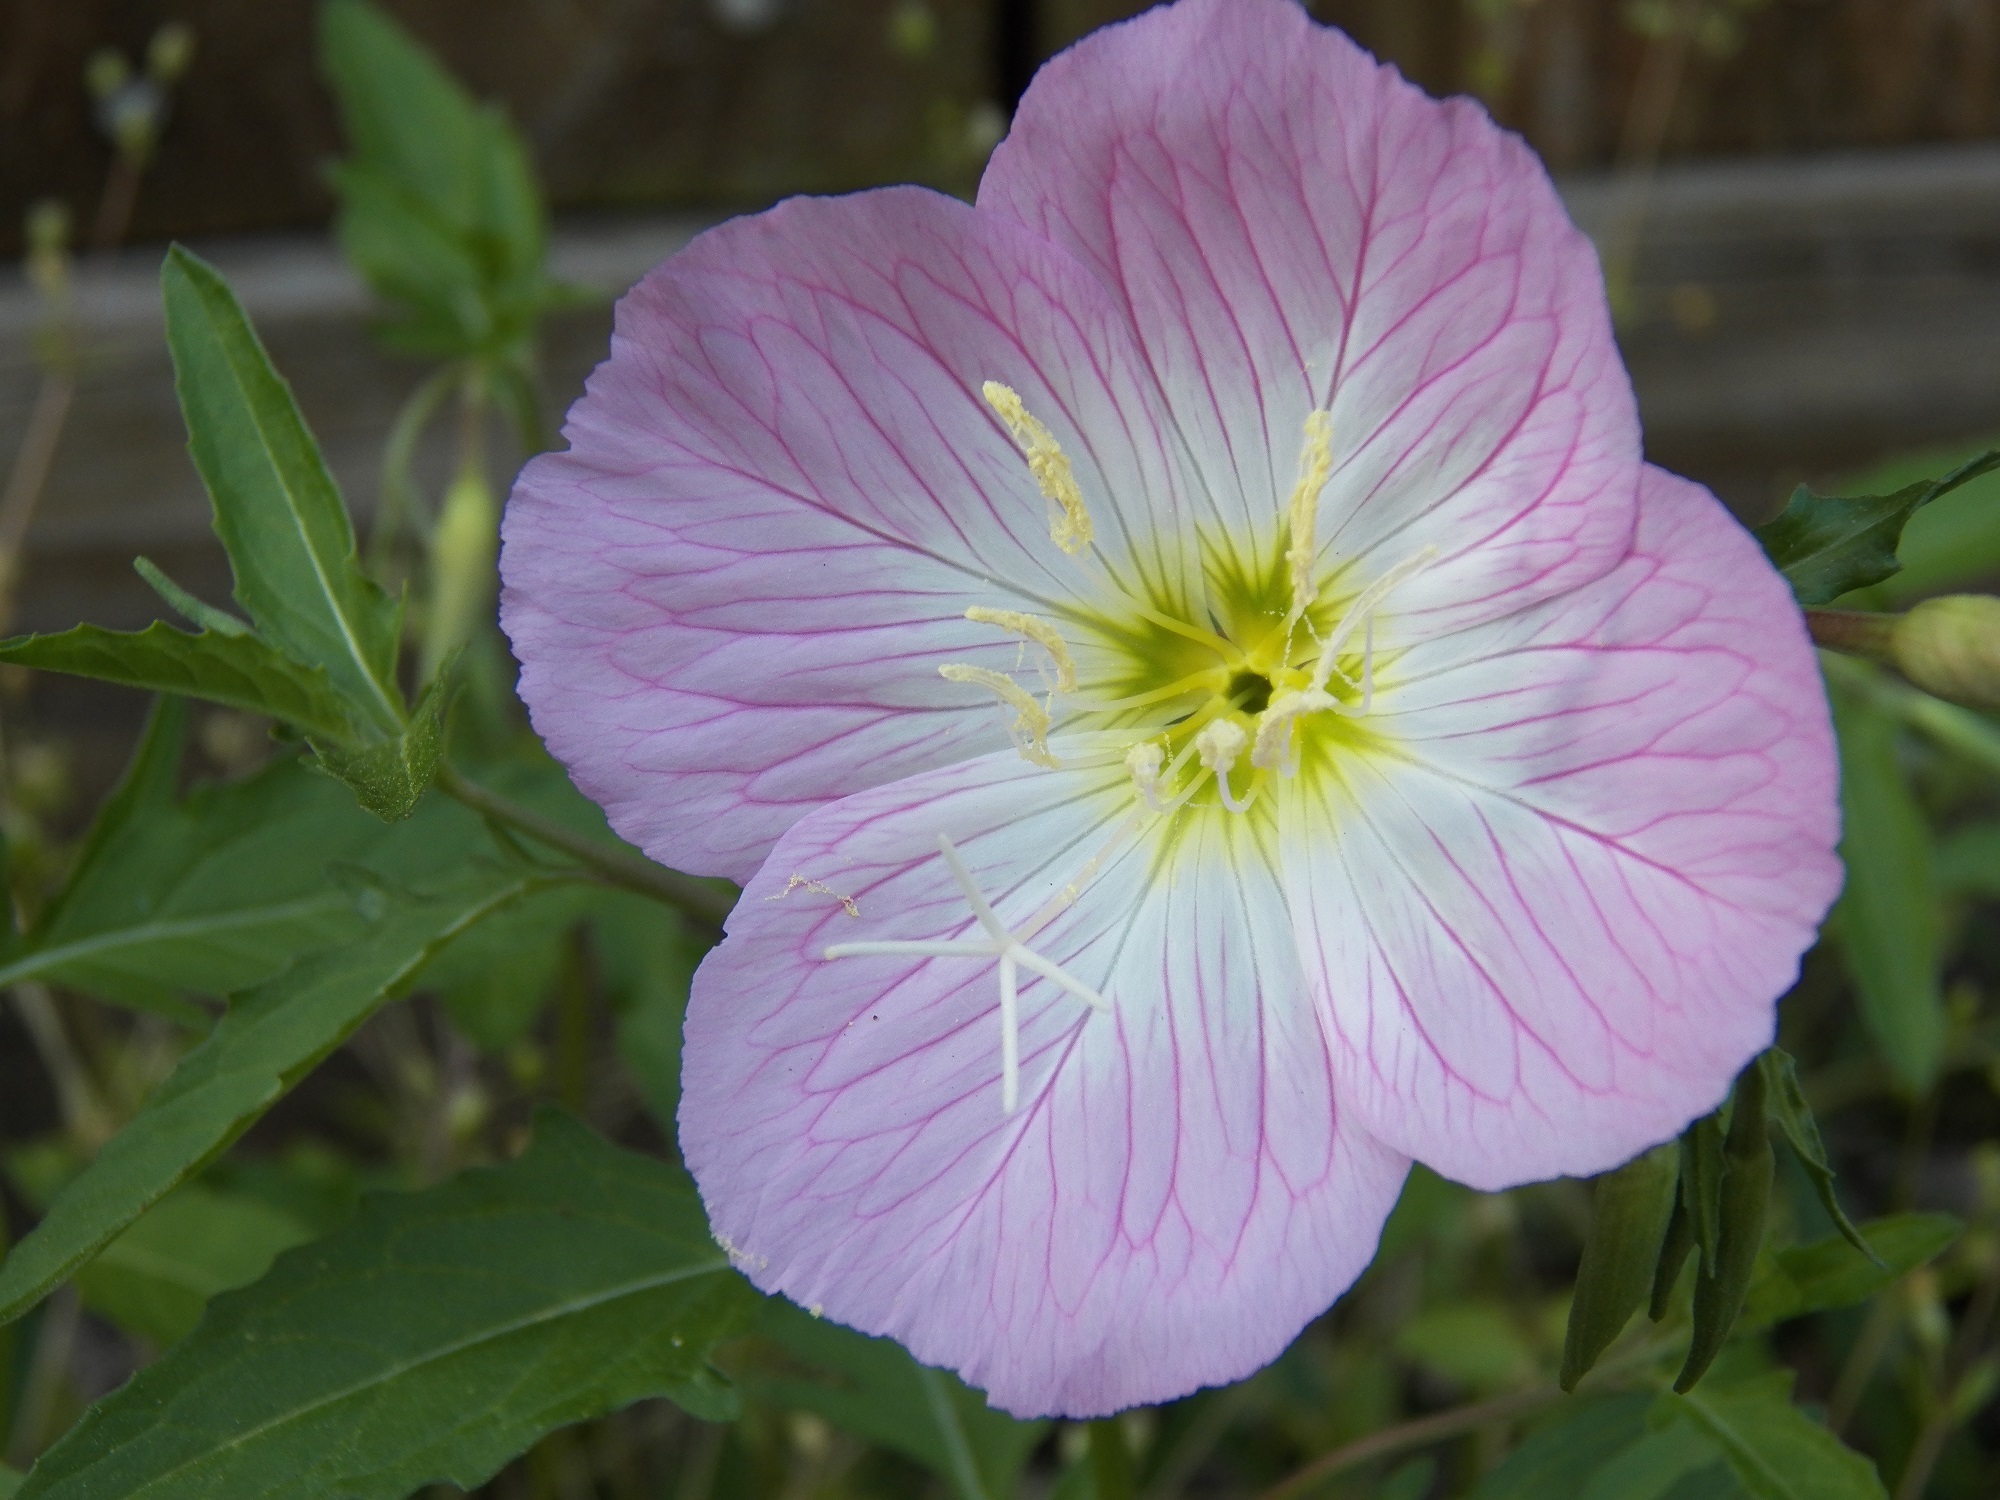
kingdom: Plantae
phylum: Tracheophyta
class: Magnoliopsida
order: Myrtales
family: Onagraceae
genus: Oenothera
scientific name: Oenothera speciosa
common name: White evening-primrose
